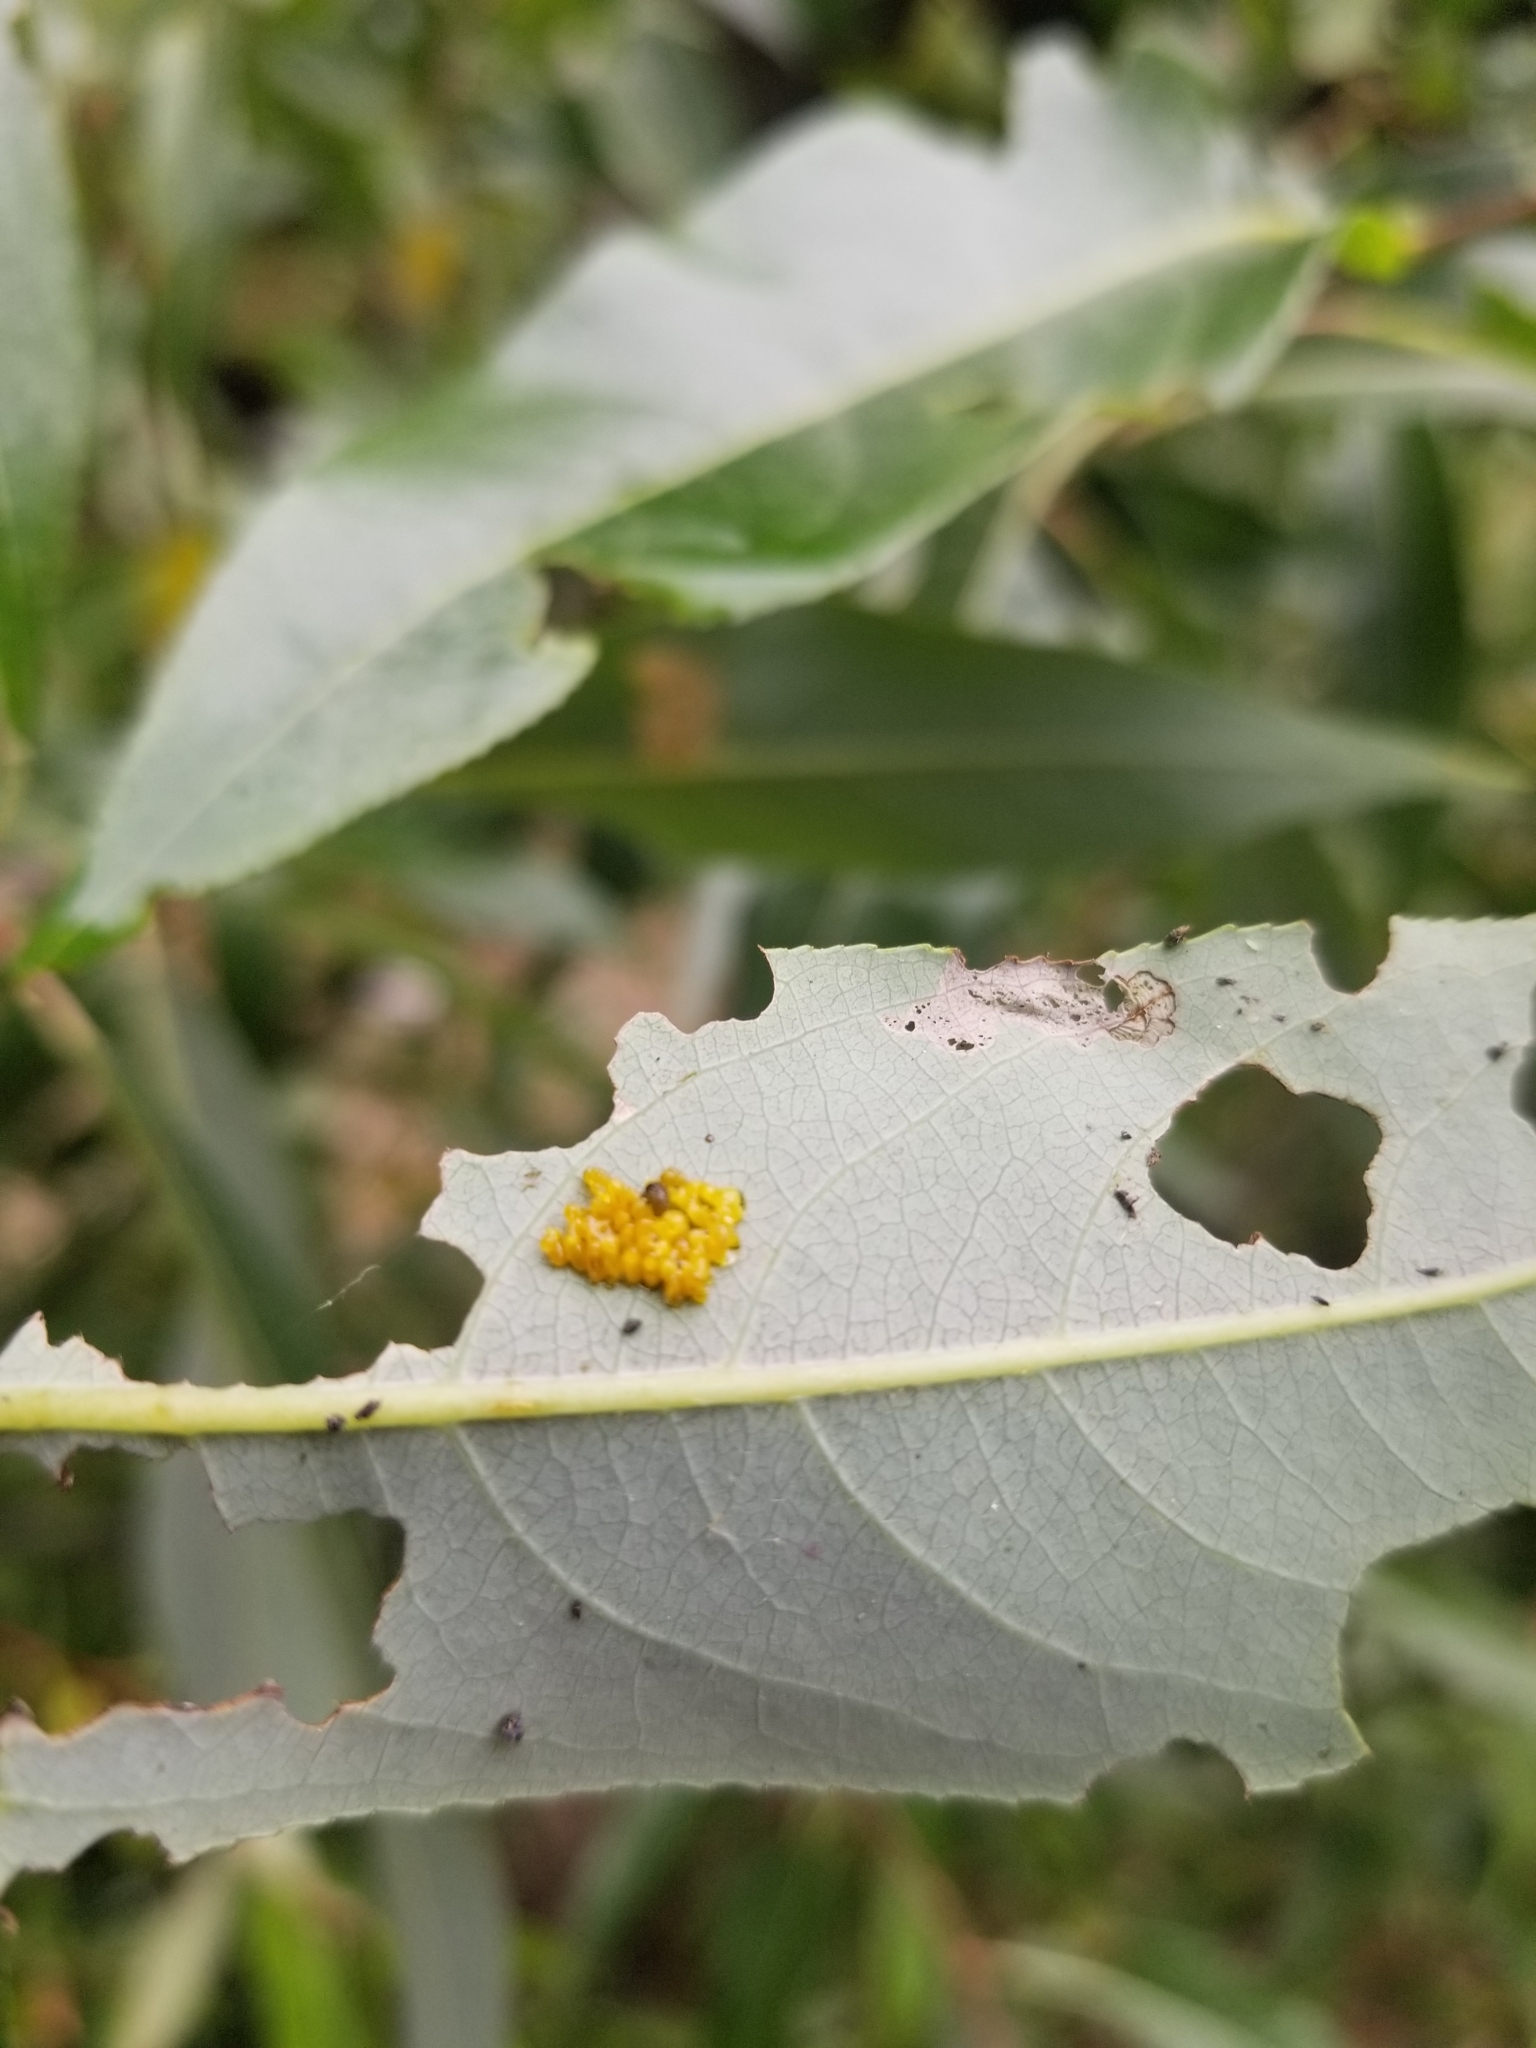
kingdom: Animalia
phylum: Arthropoda
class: Insecta
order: Coleoptera
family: Chrysomelidae
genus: Chrysomela
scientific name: Chrysomela confluens
